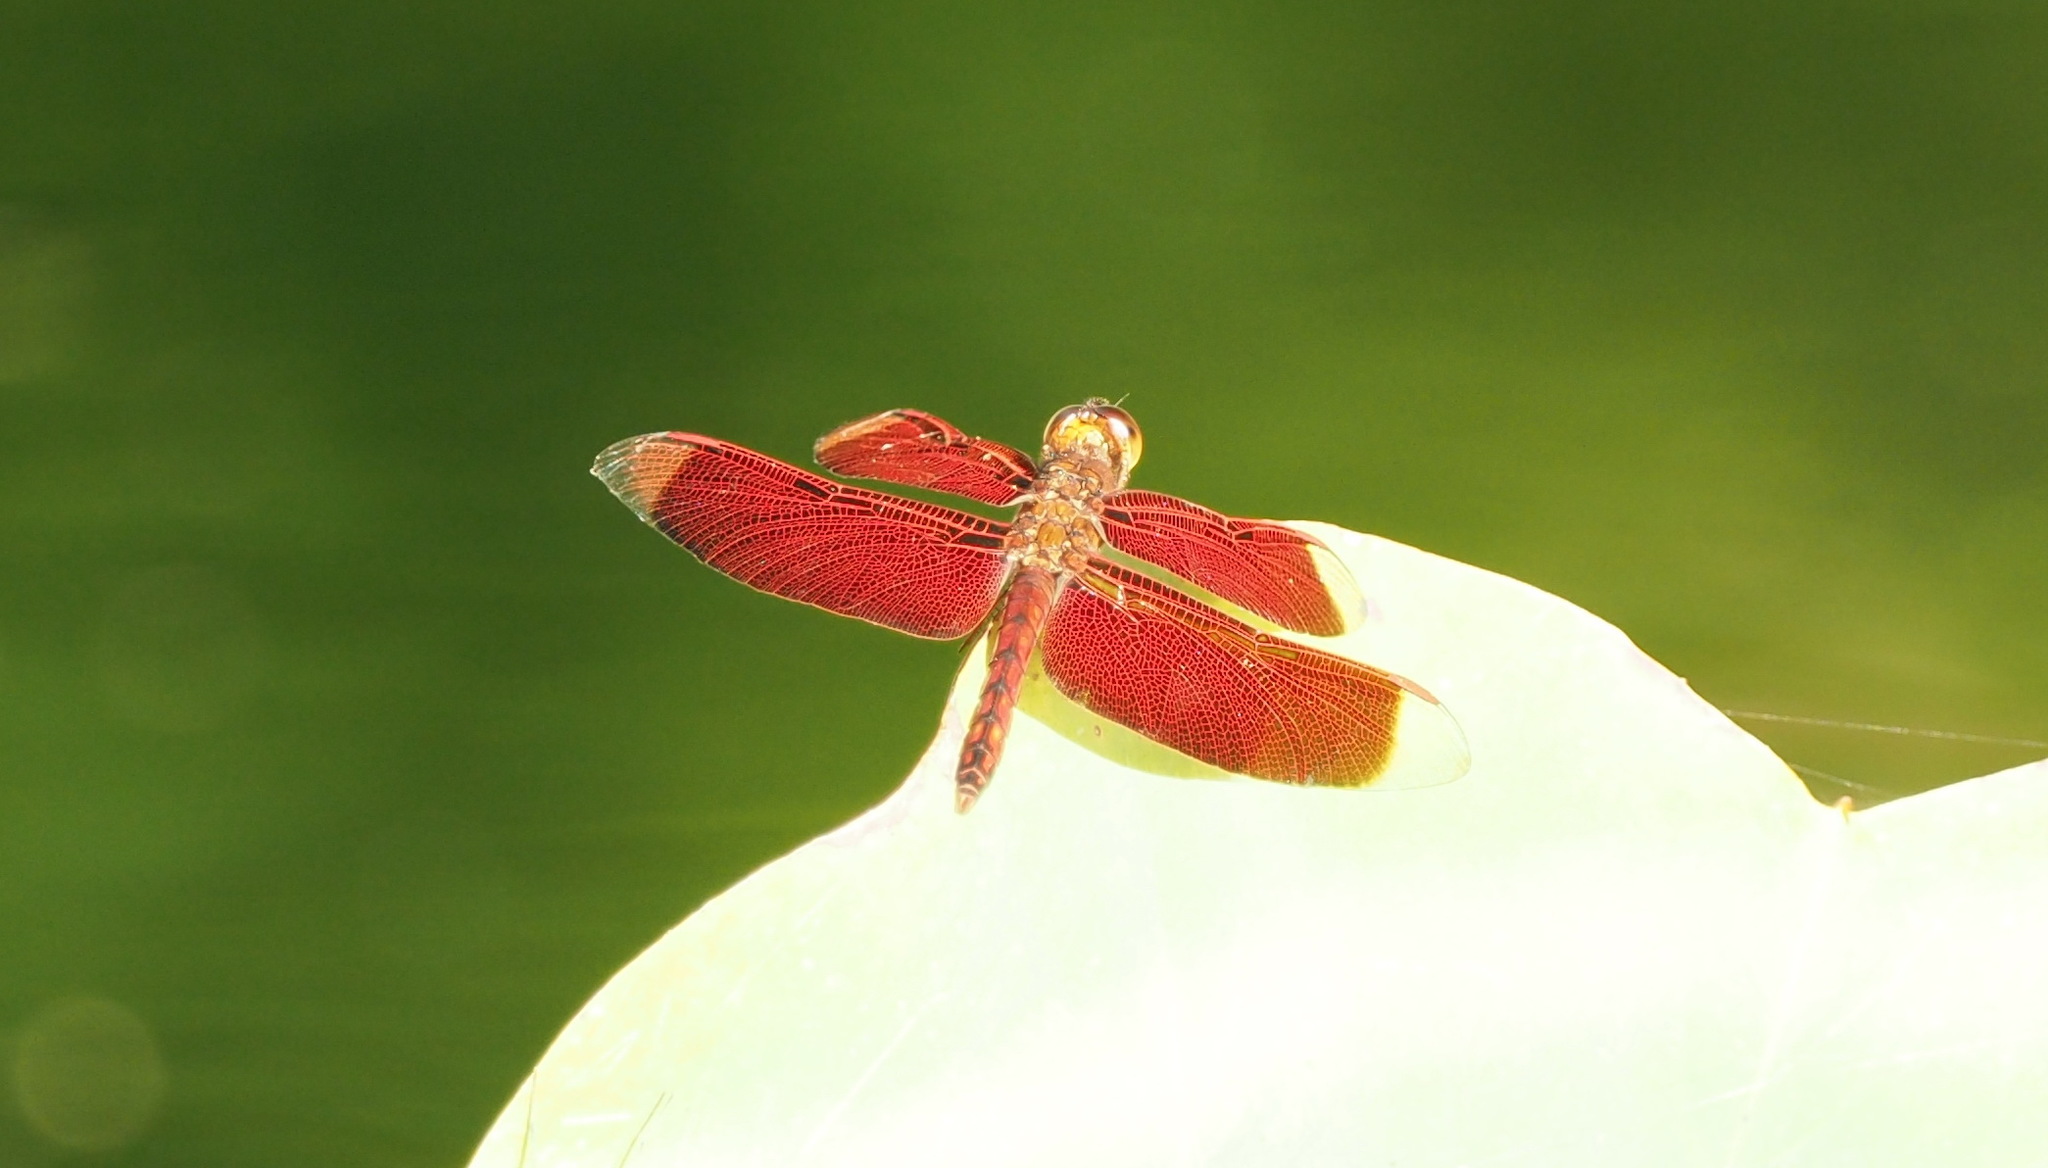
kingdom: Animalia
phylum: Arthropoda
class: Insecta
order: Odonata
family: Libellulidae
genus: Neurothemis
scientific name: Neurothemis taiwanensis
